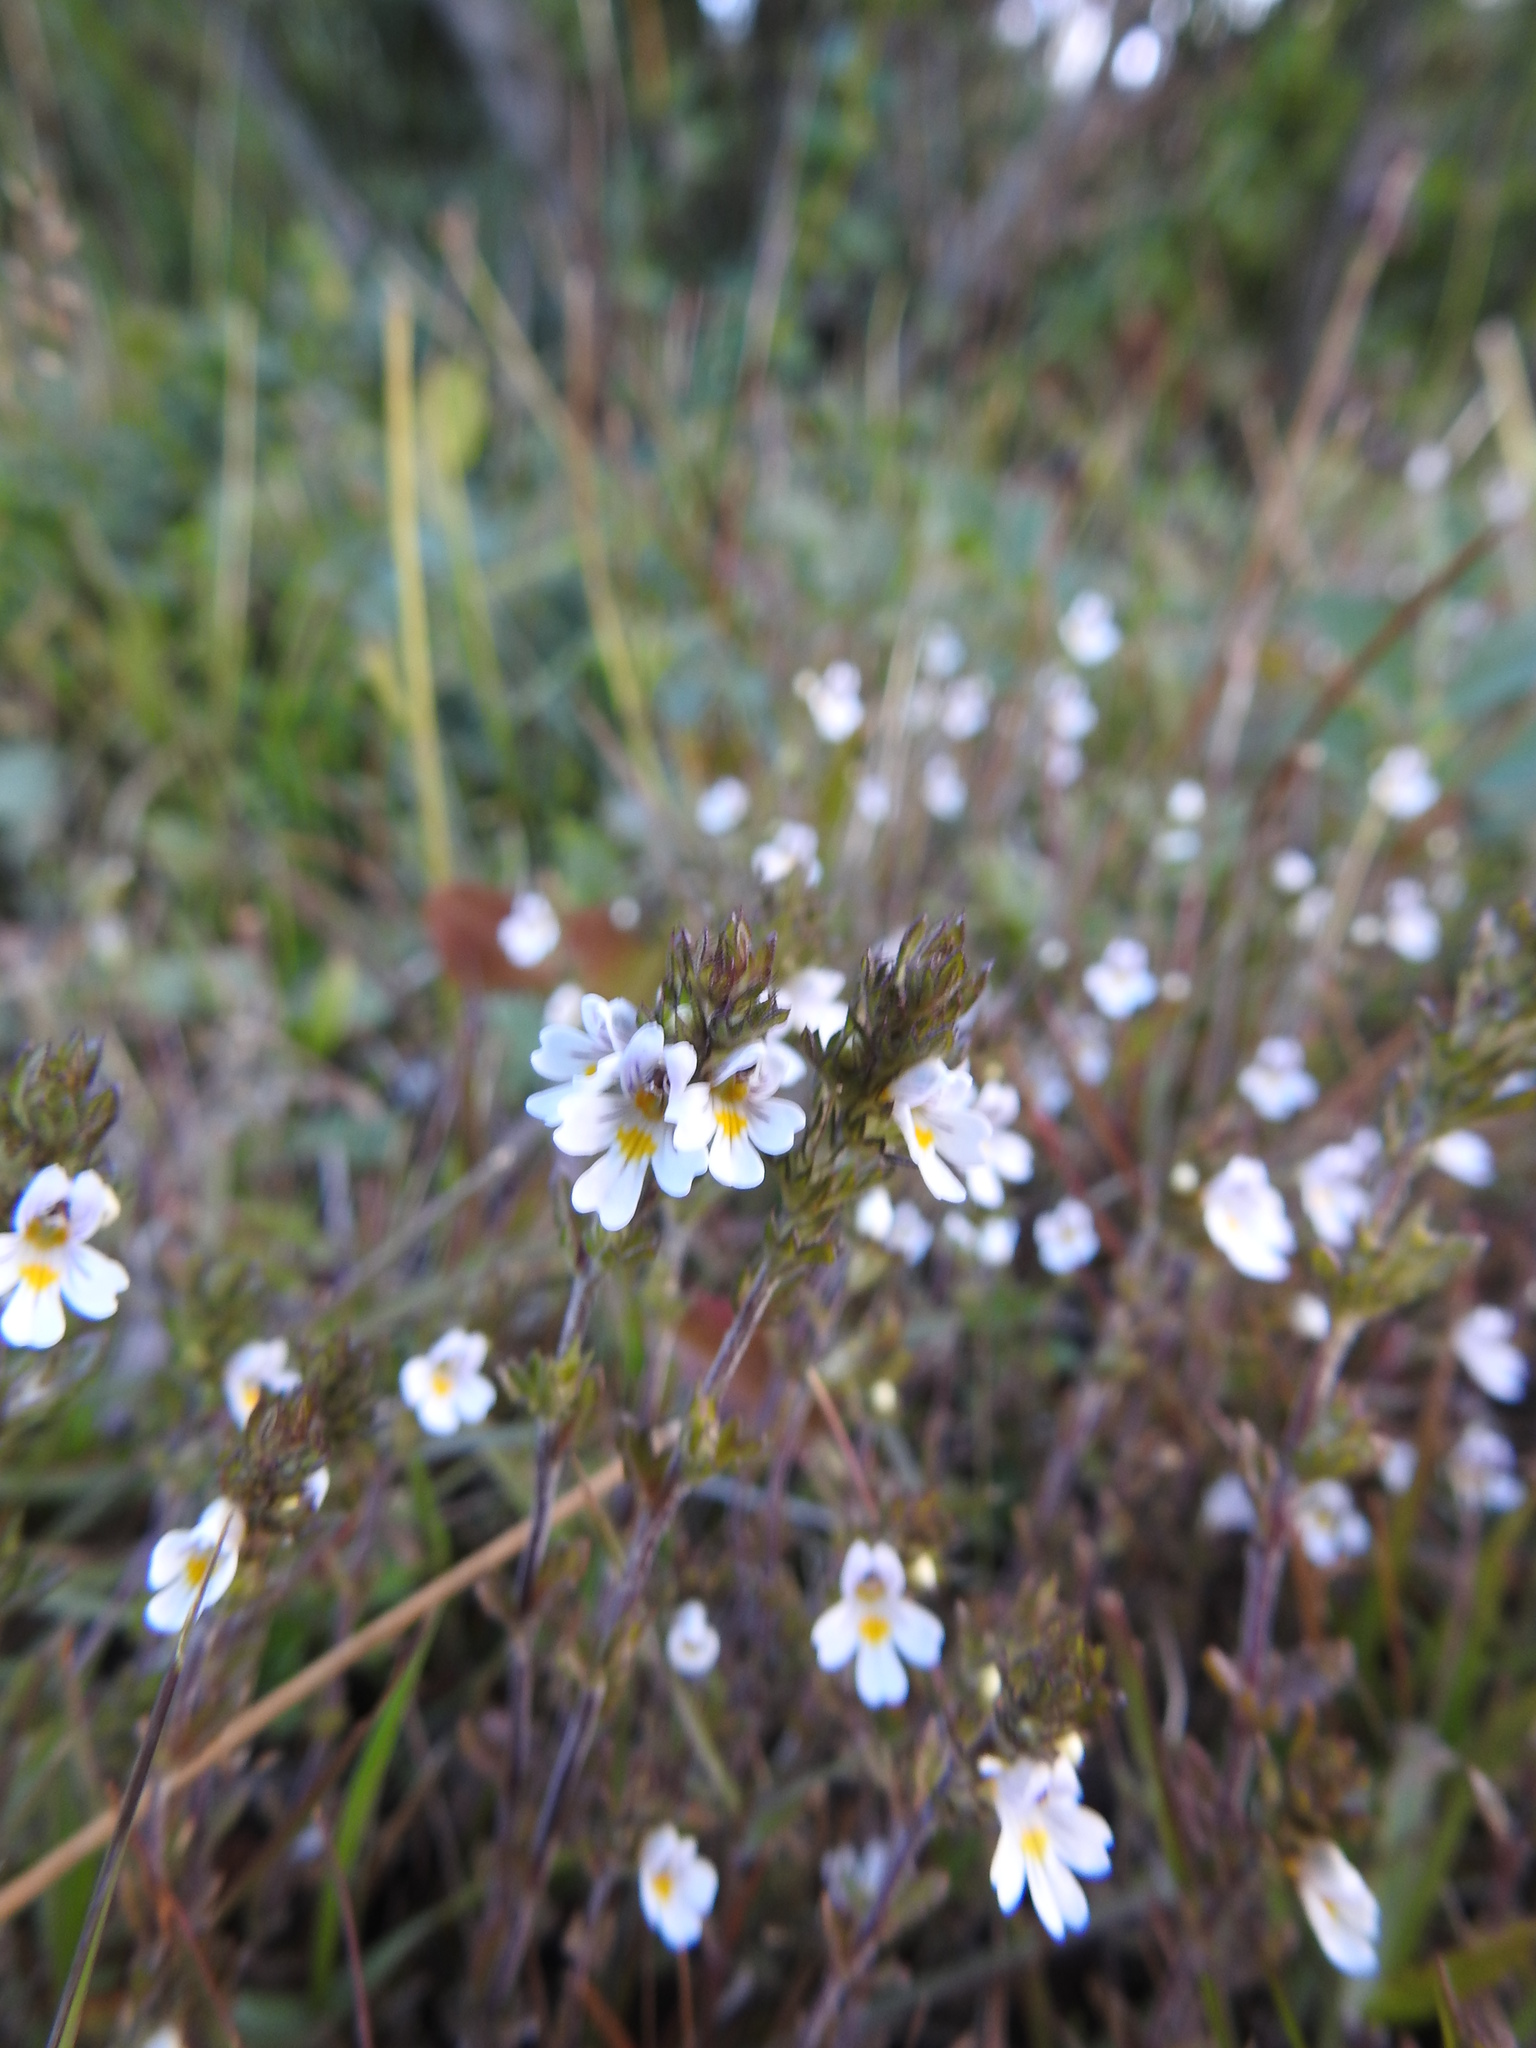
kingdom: Plantae
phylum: Tracheophyta
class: Magnoliopsida
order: Lamiales
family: Orobanchaceae
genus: Euphrasia
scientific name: Euphrasia officinalis
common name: Eyebright
